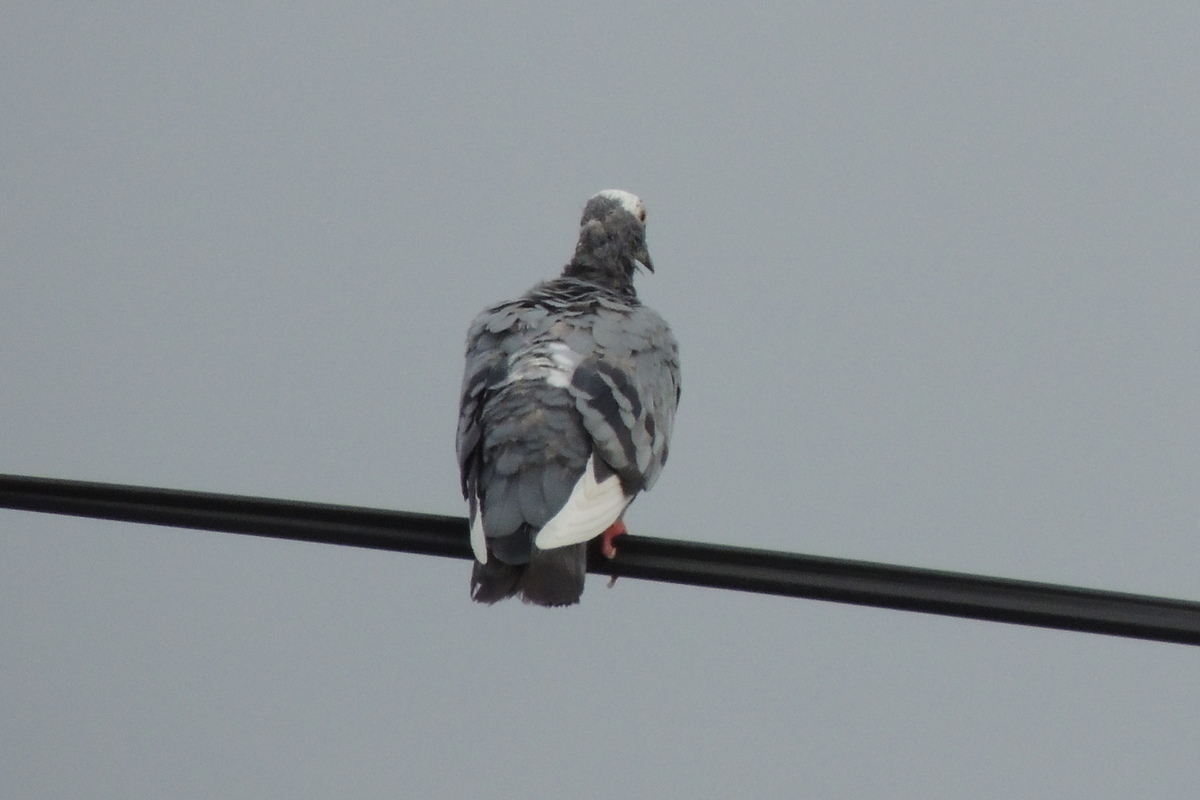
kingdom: Animalia
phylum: Chordata
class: Aves
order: Columbiformes
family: Columbidae
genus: Columba
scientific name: Columba livia
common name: Rock pigeon
